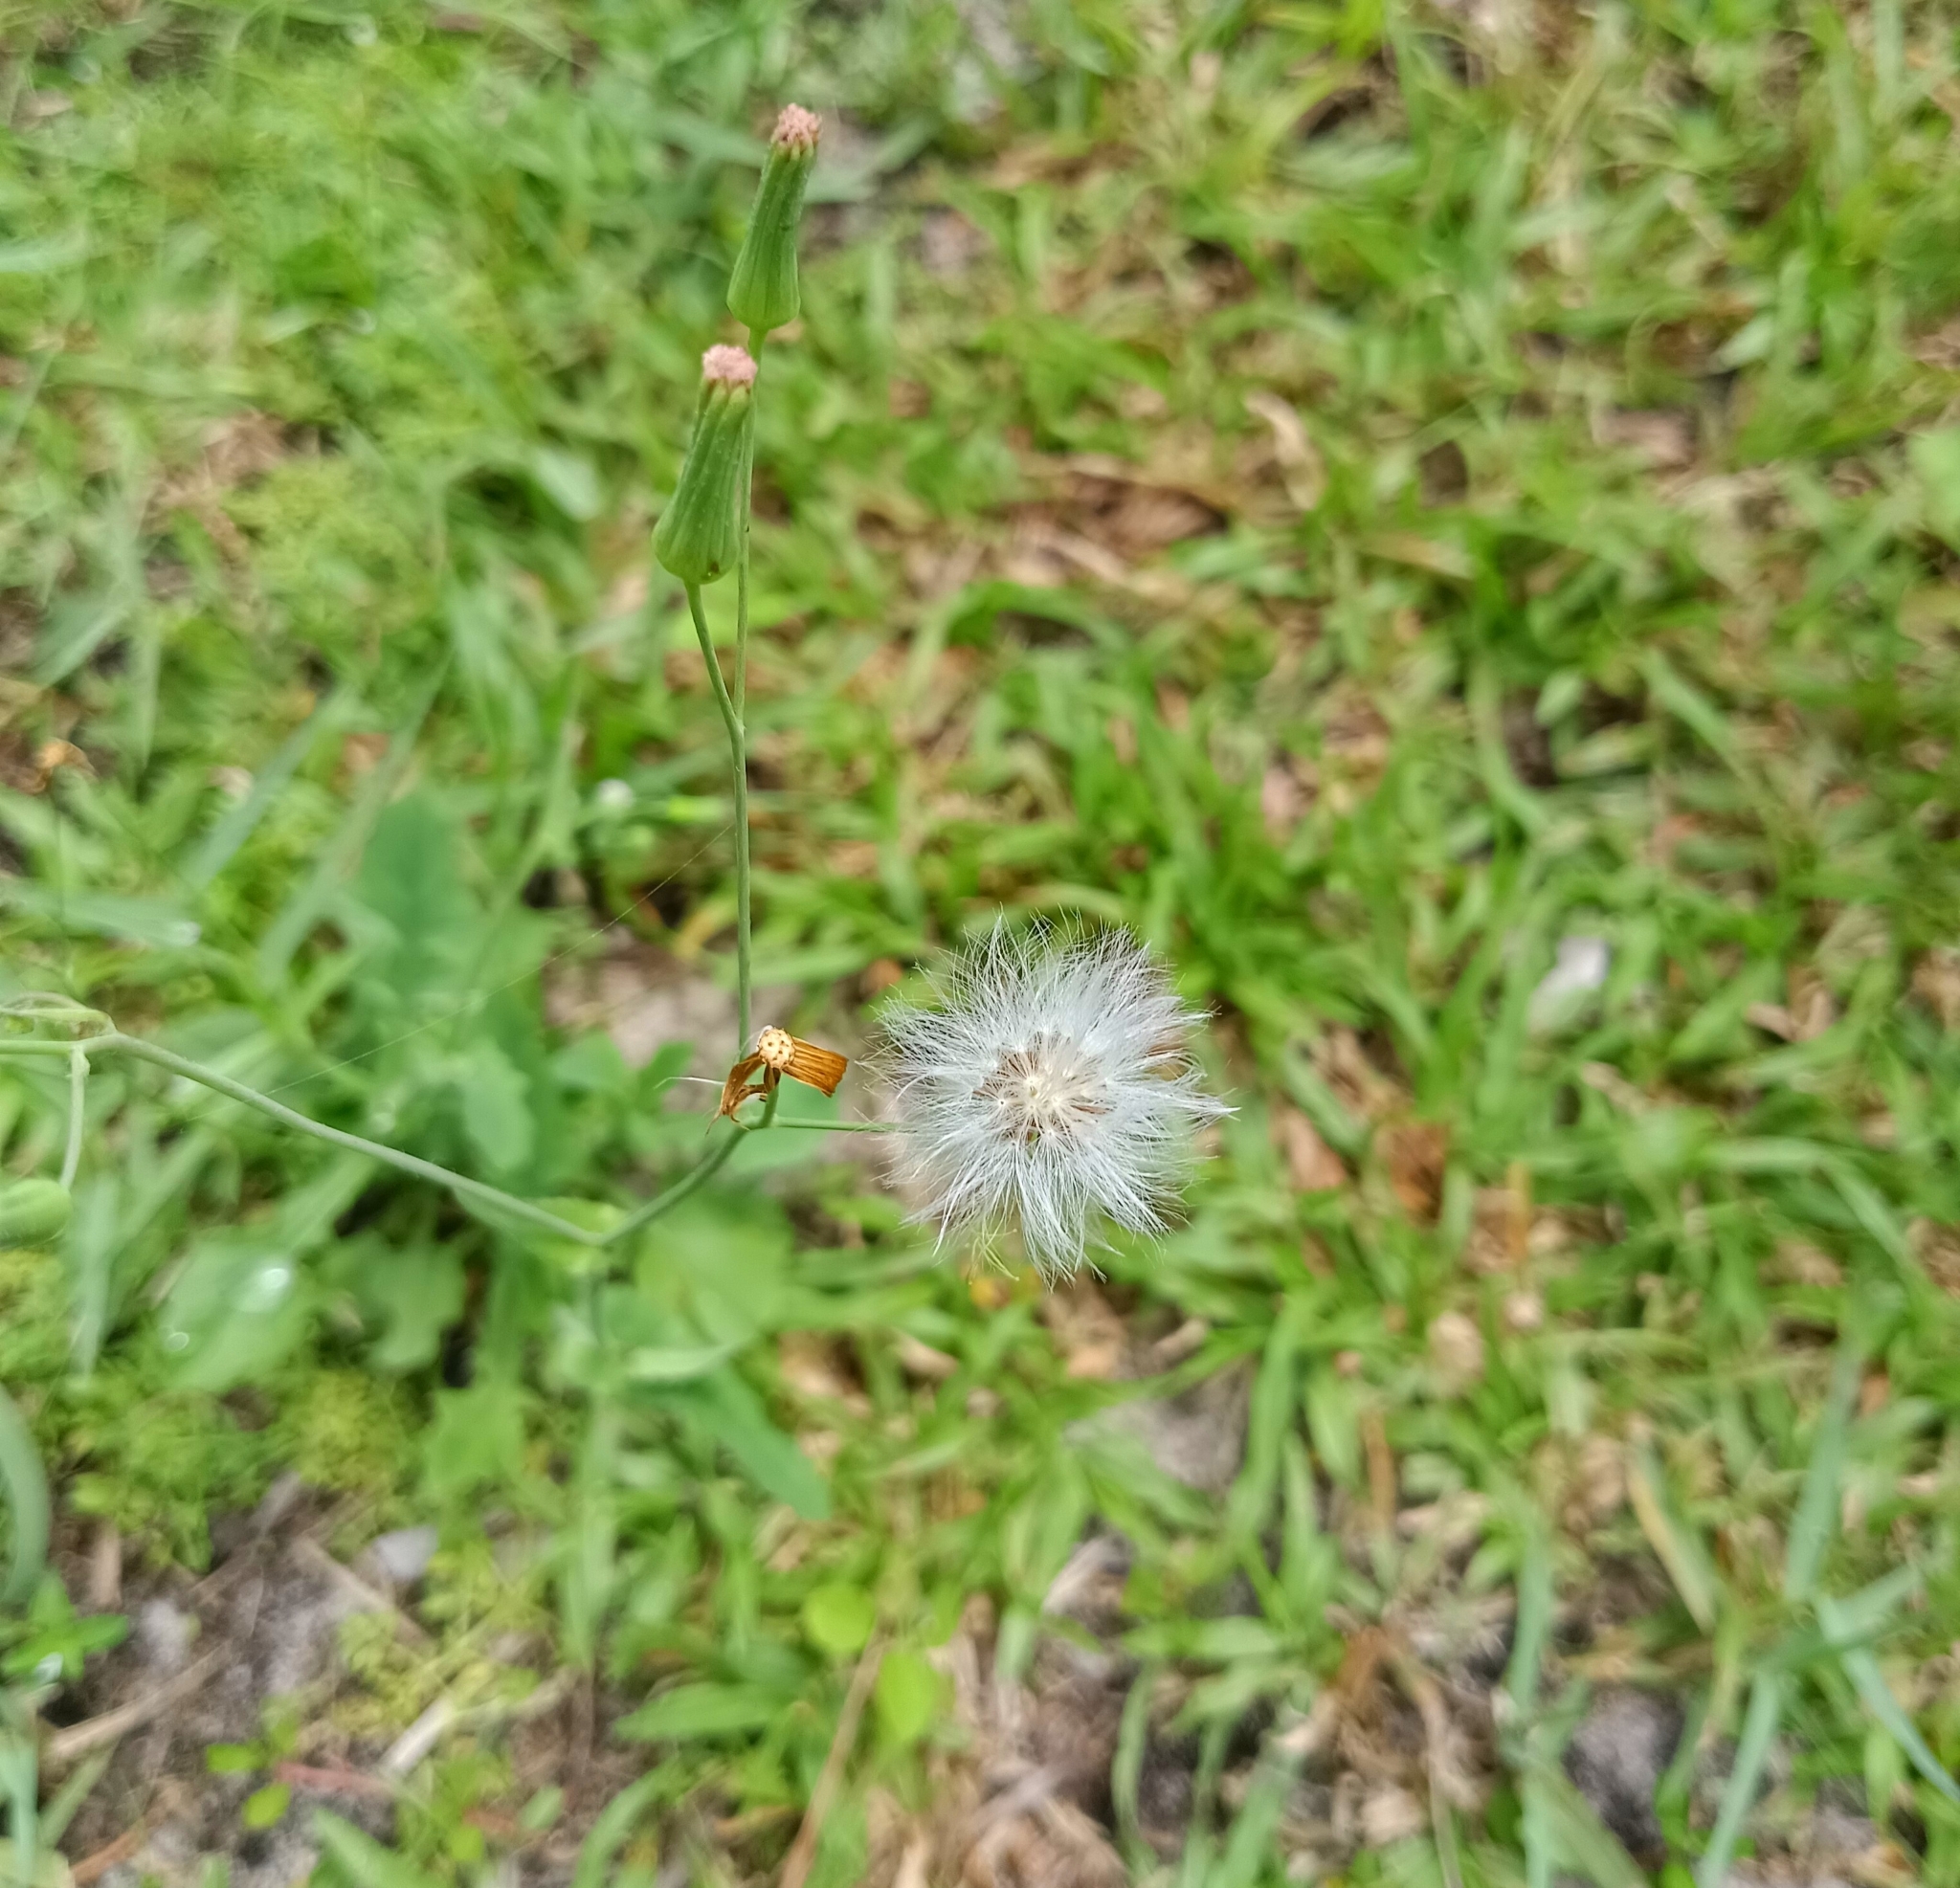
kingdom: Plantae
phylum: Tracheophyta
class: Magnoliopsida
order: Asterales
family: Asteraceae
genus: Cyanthillium
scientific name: Cyanthillium cinereum
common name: Little ironweed
